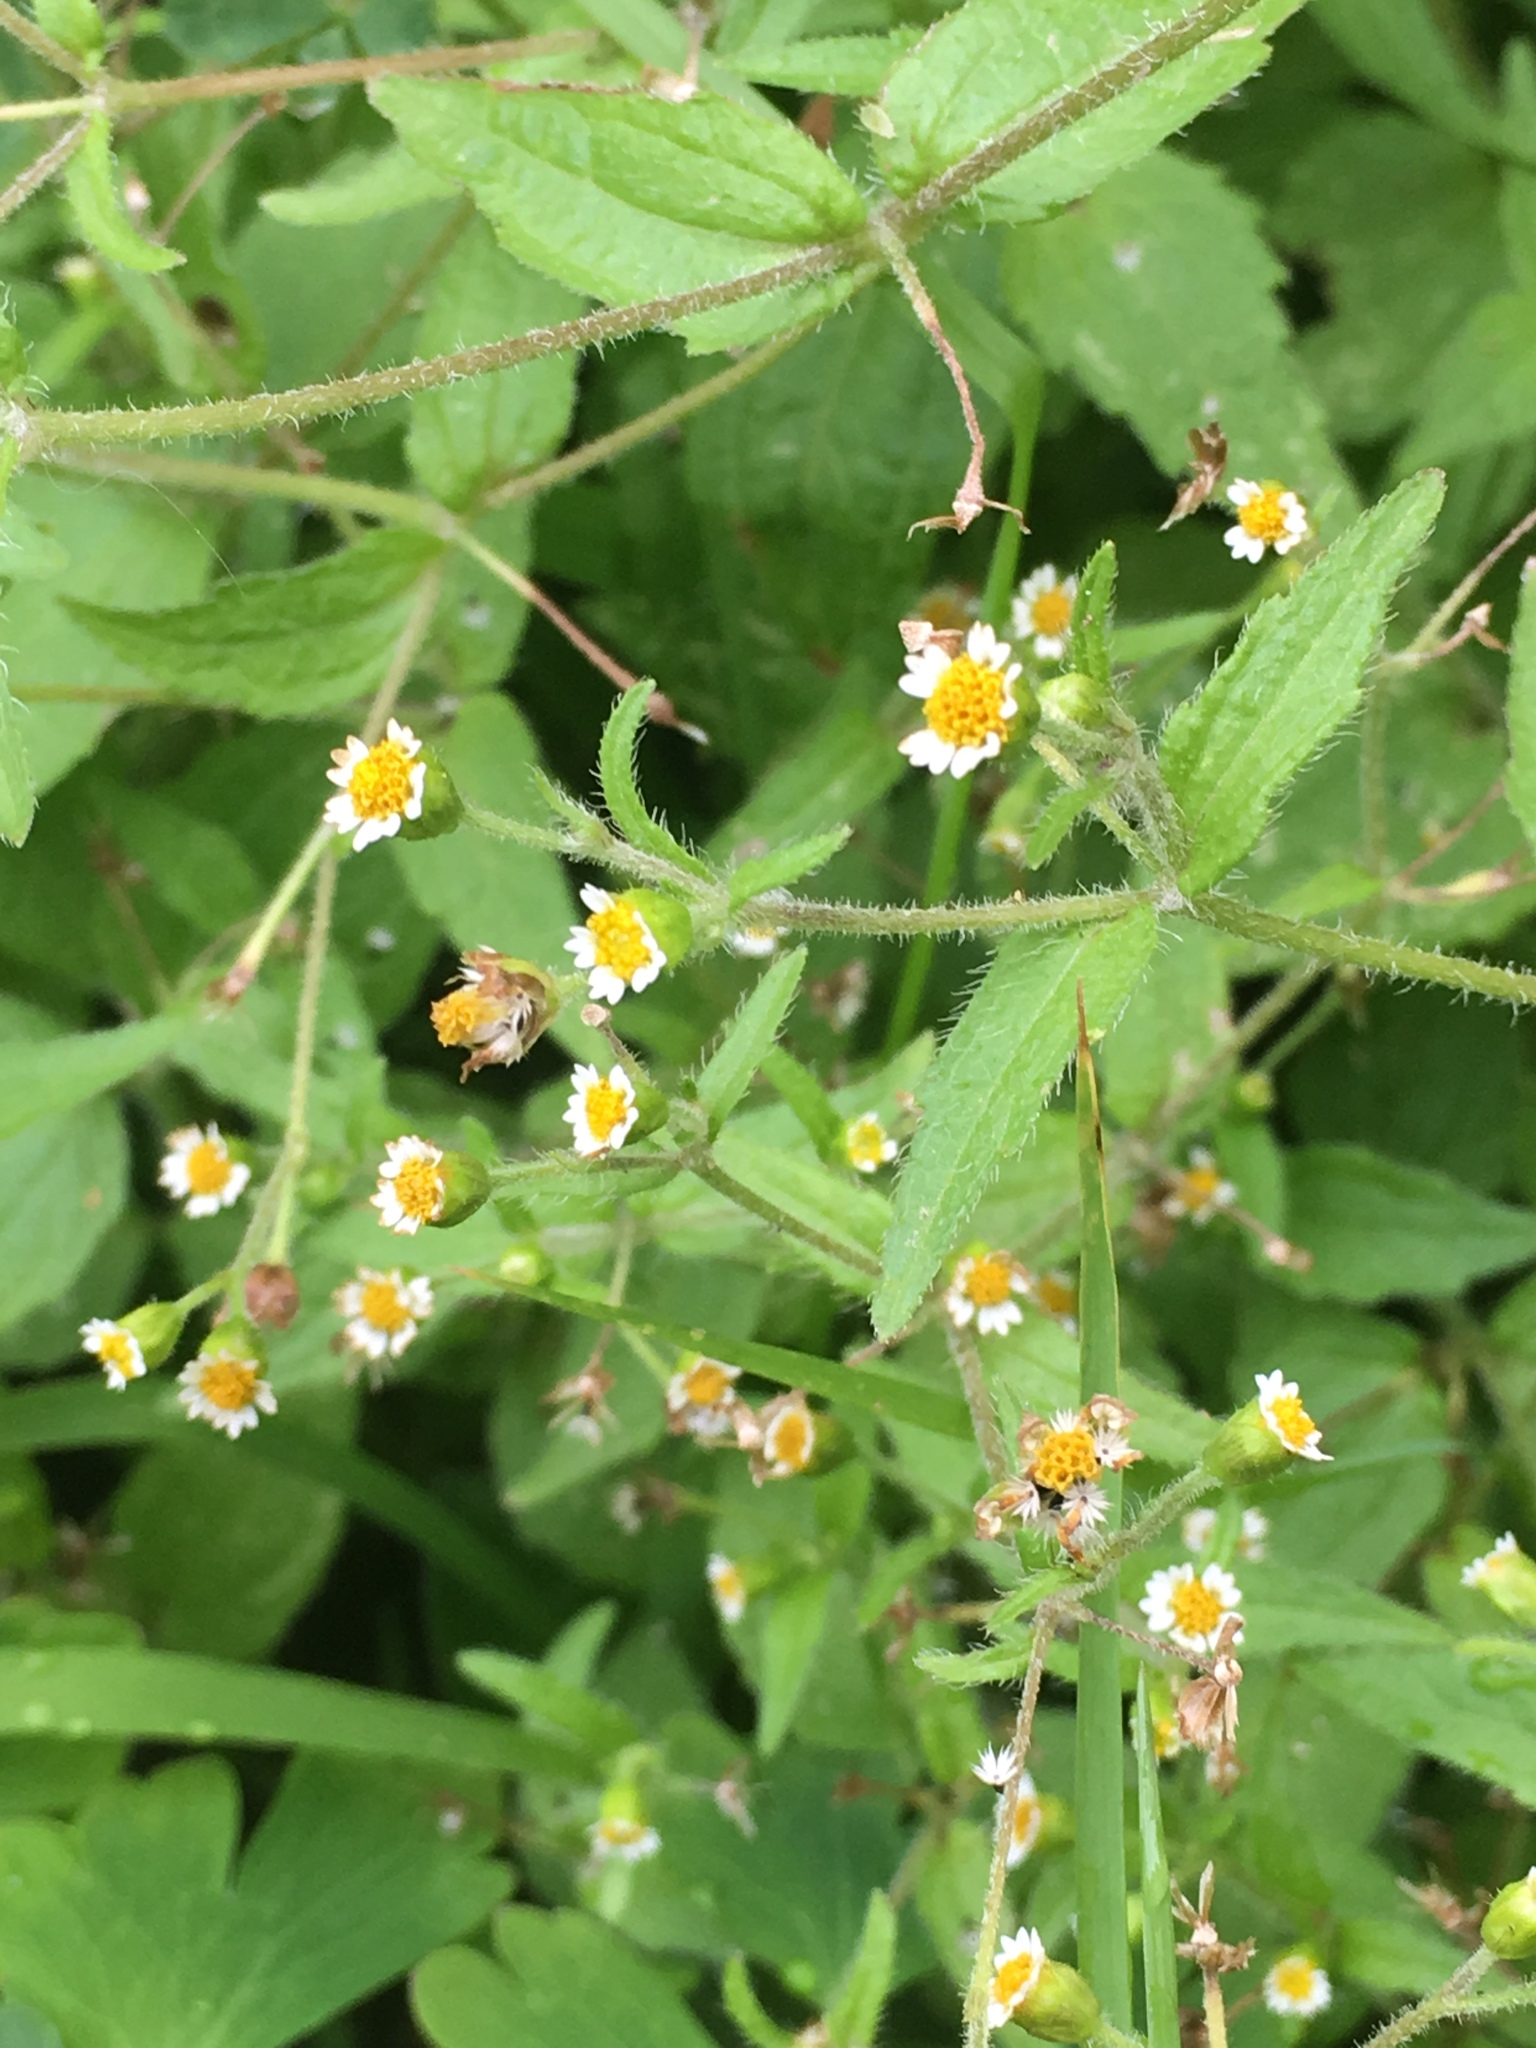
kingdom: Plantae
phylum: Tracheophyta
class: Magnoliopsida
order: Asterales
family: Asteraceae
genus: Galinsoga
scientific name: Galinsoga quadriradiata
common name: Shaggy soldier
